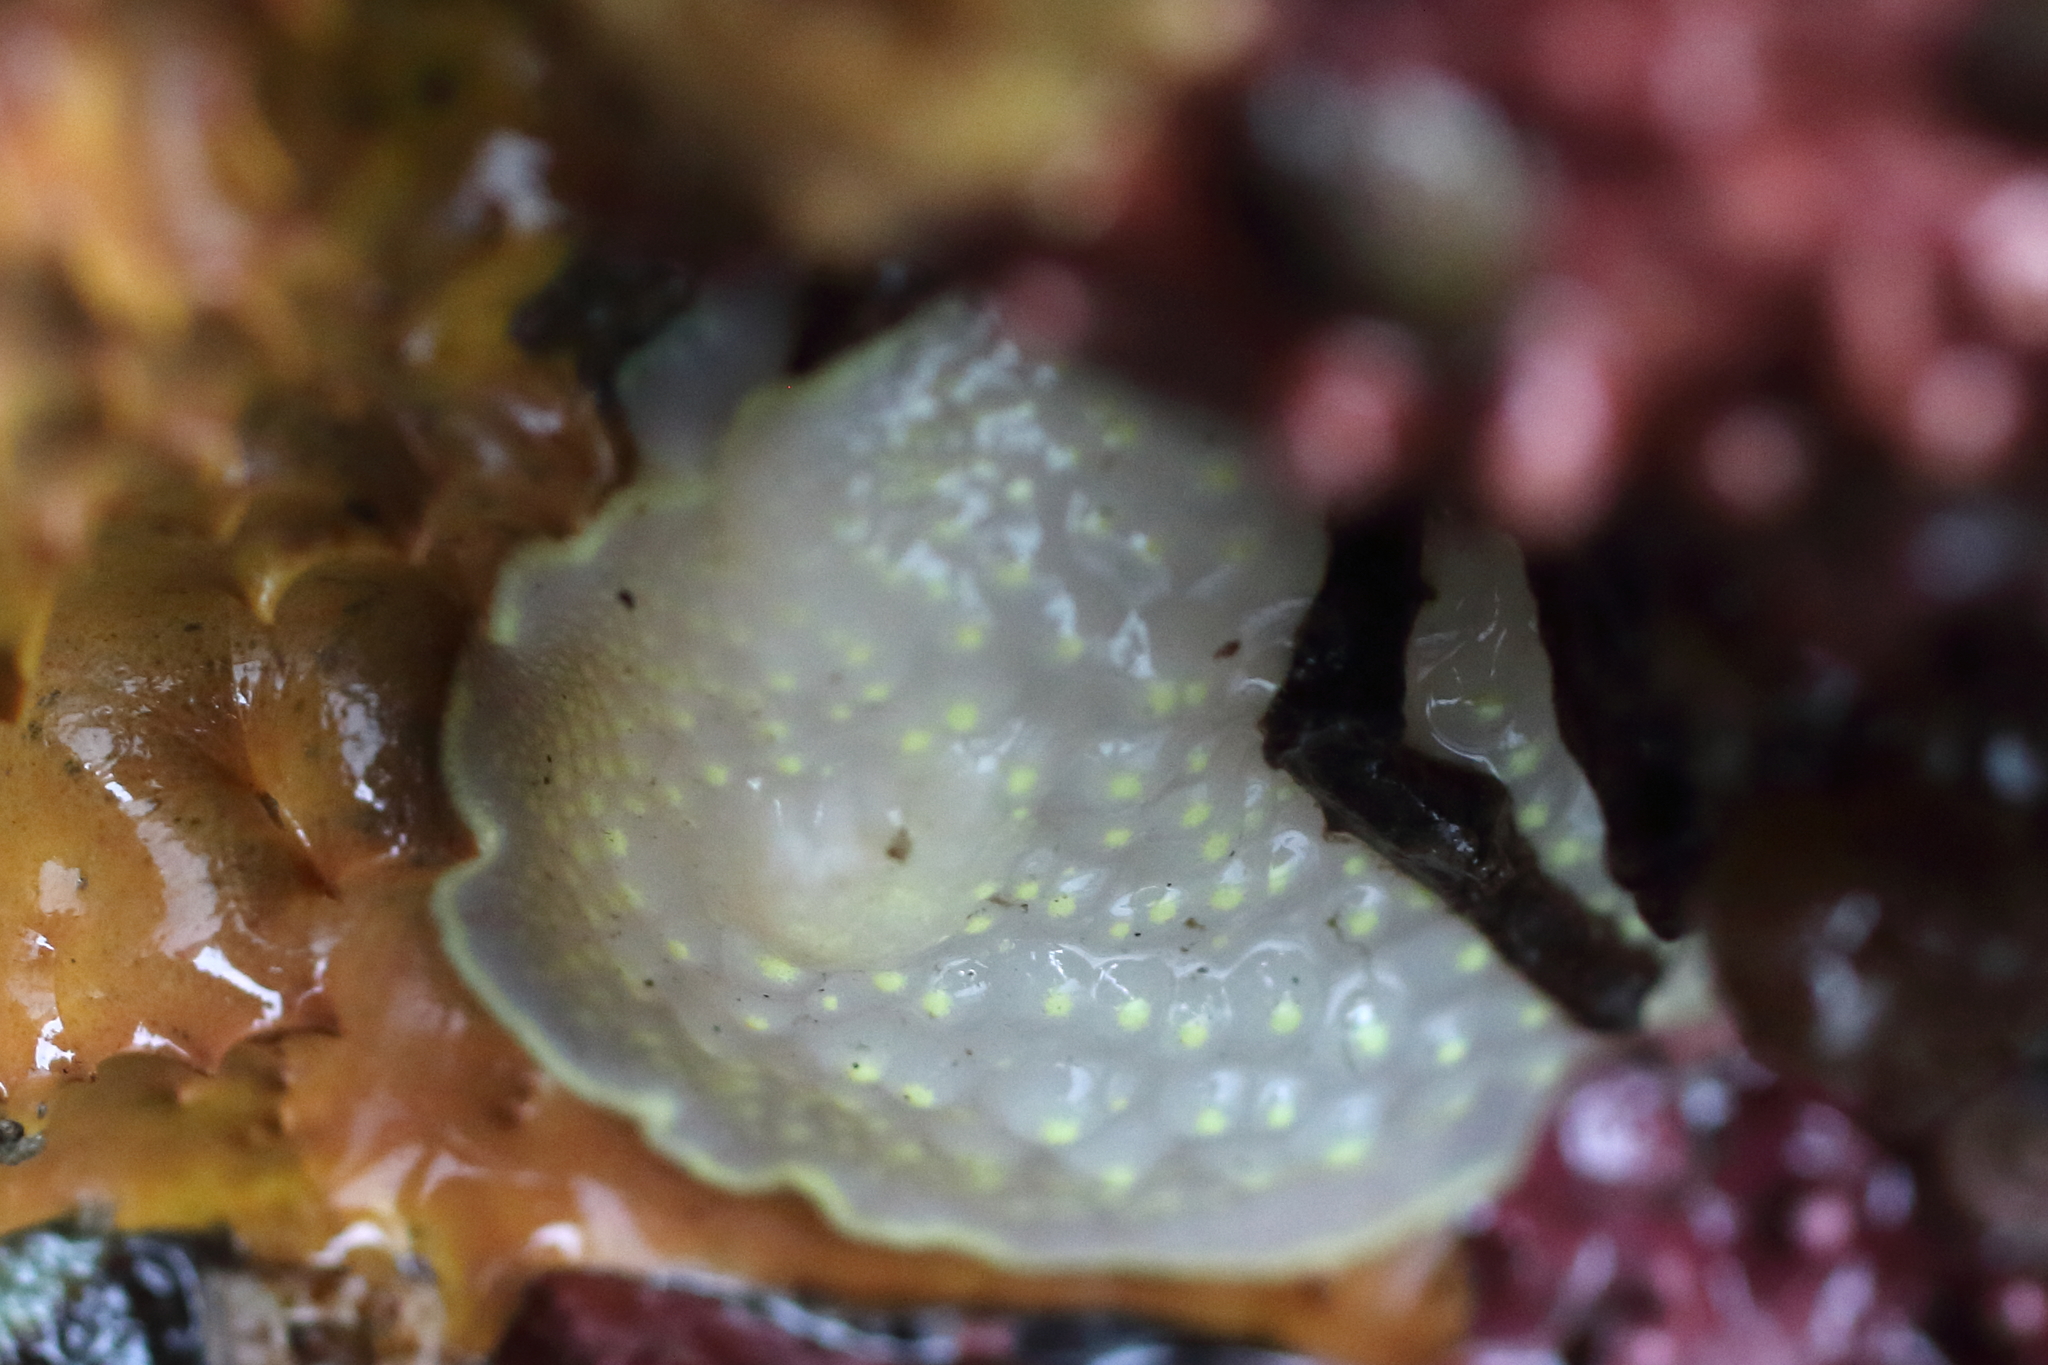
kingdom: Animalia
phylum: Mollusca
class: Gastropoda
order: Nudibranchia
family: Cadlinidae
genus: Cadlina
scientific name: Cadlina luteomarginata
